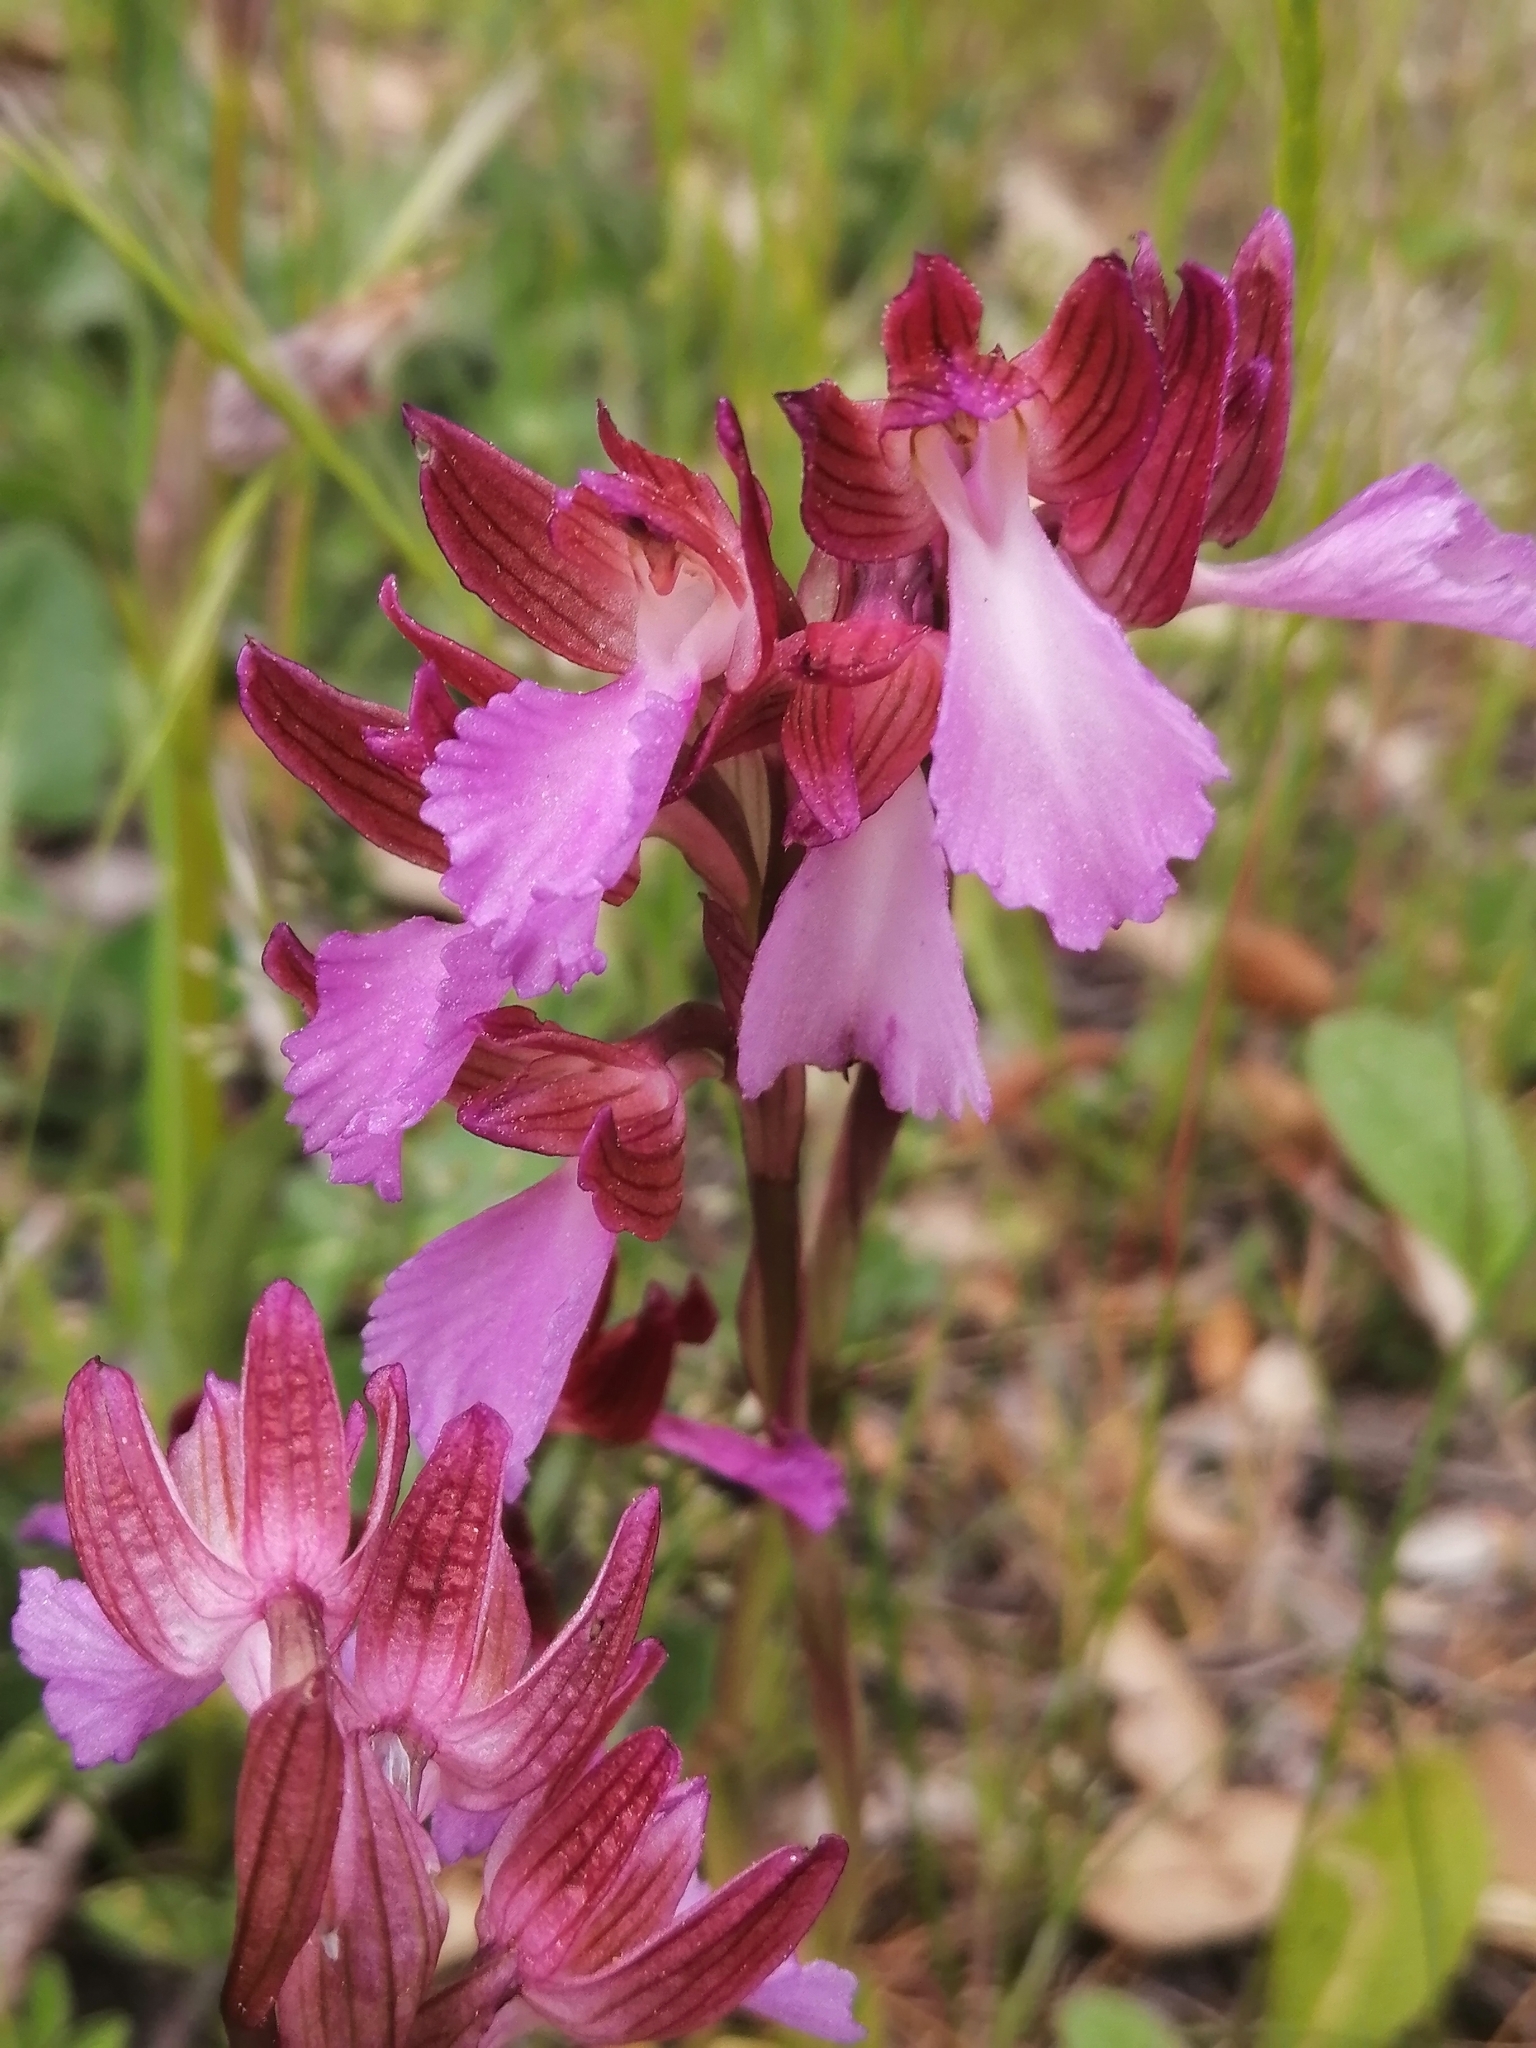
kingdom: Plantae
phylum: Tracheophyta
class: Liliopsida
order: Asparagales
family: Orchidaceae
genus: Anacamptis
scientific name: Anacamptis papilionacea
